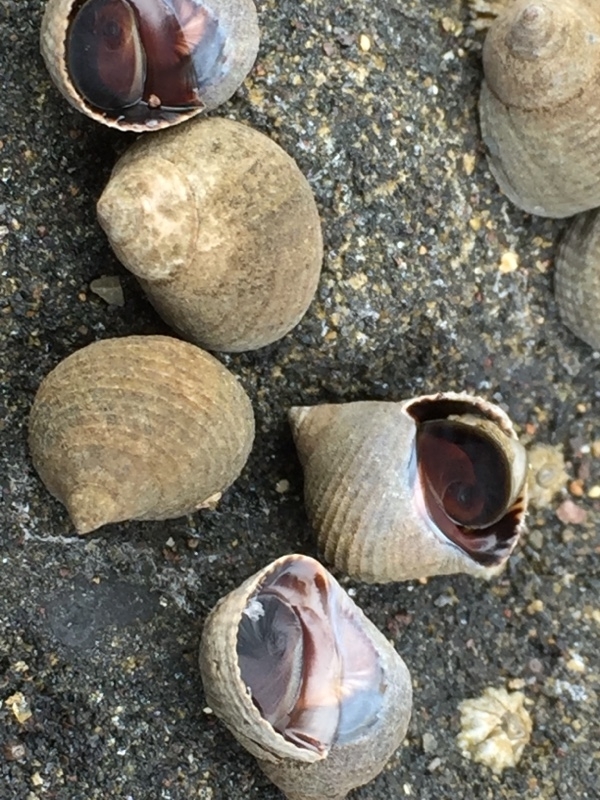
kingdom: Animalia
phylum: Mollusca
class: Gastropoda
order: Littorinimorpha
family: Littorinidae
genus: Tectarius
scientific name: Tectarius striatus
